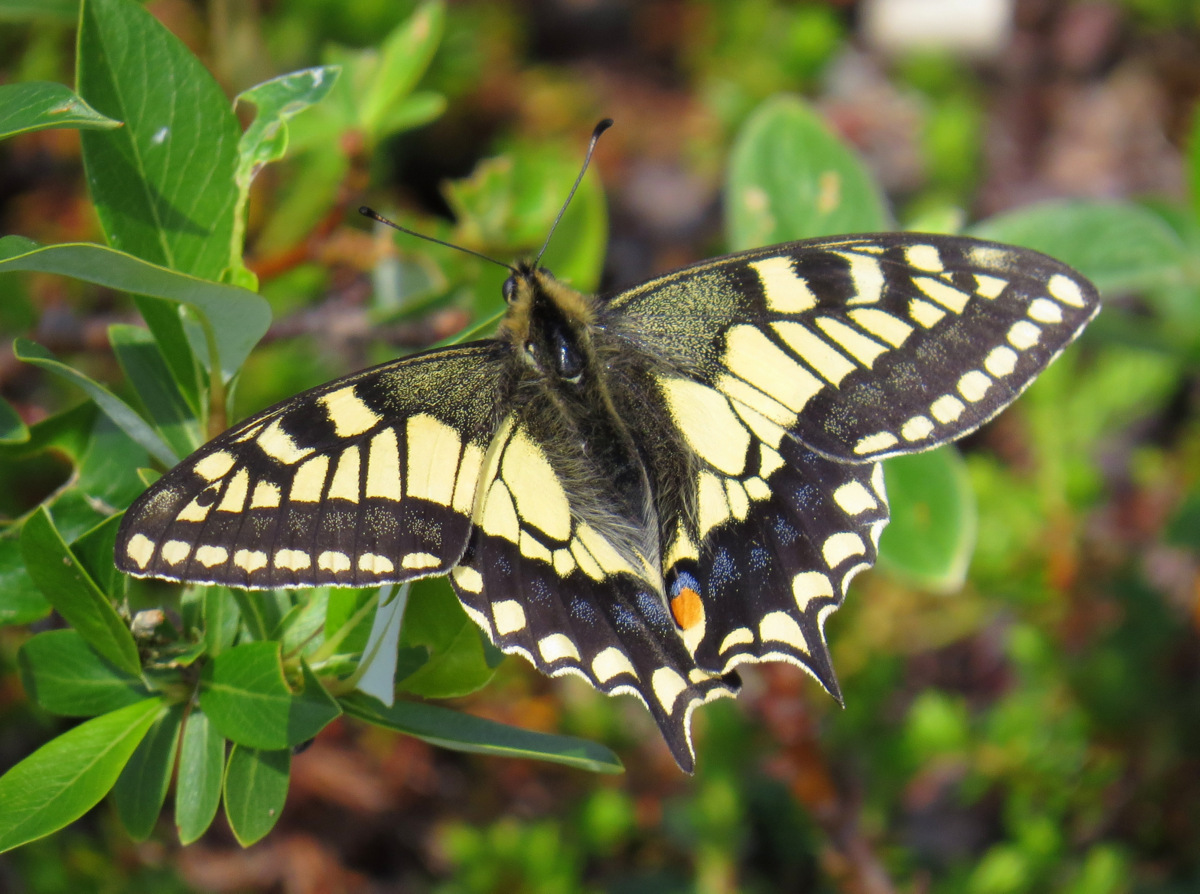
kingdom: Animalia
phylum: Arthropoda
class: Insecta
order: Lepidoptera
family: Papilionidae
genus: Papilio
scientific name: Papilio machaon
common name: Swallowtail
